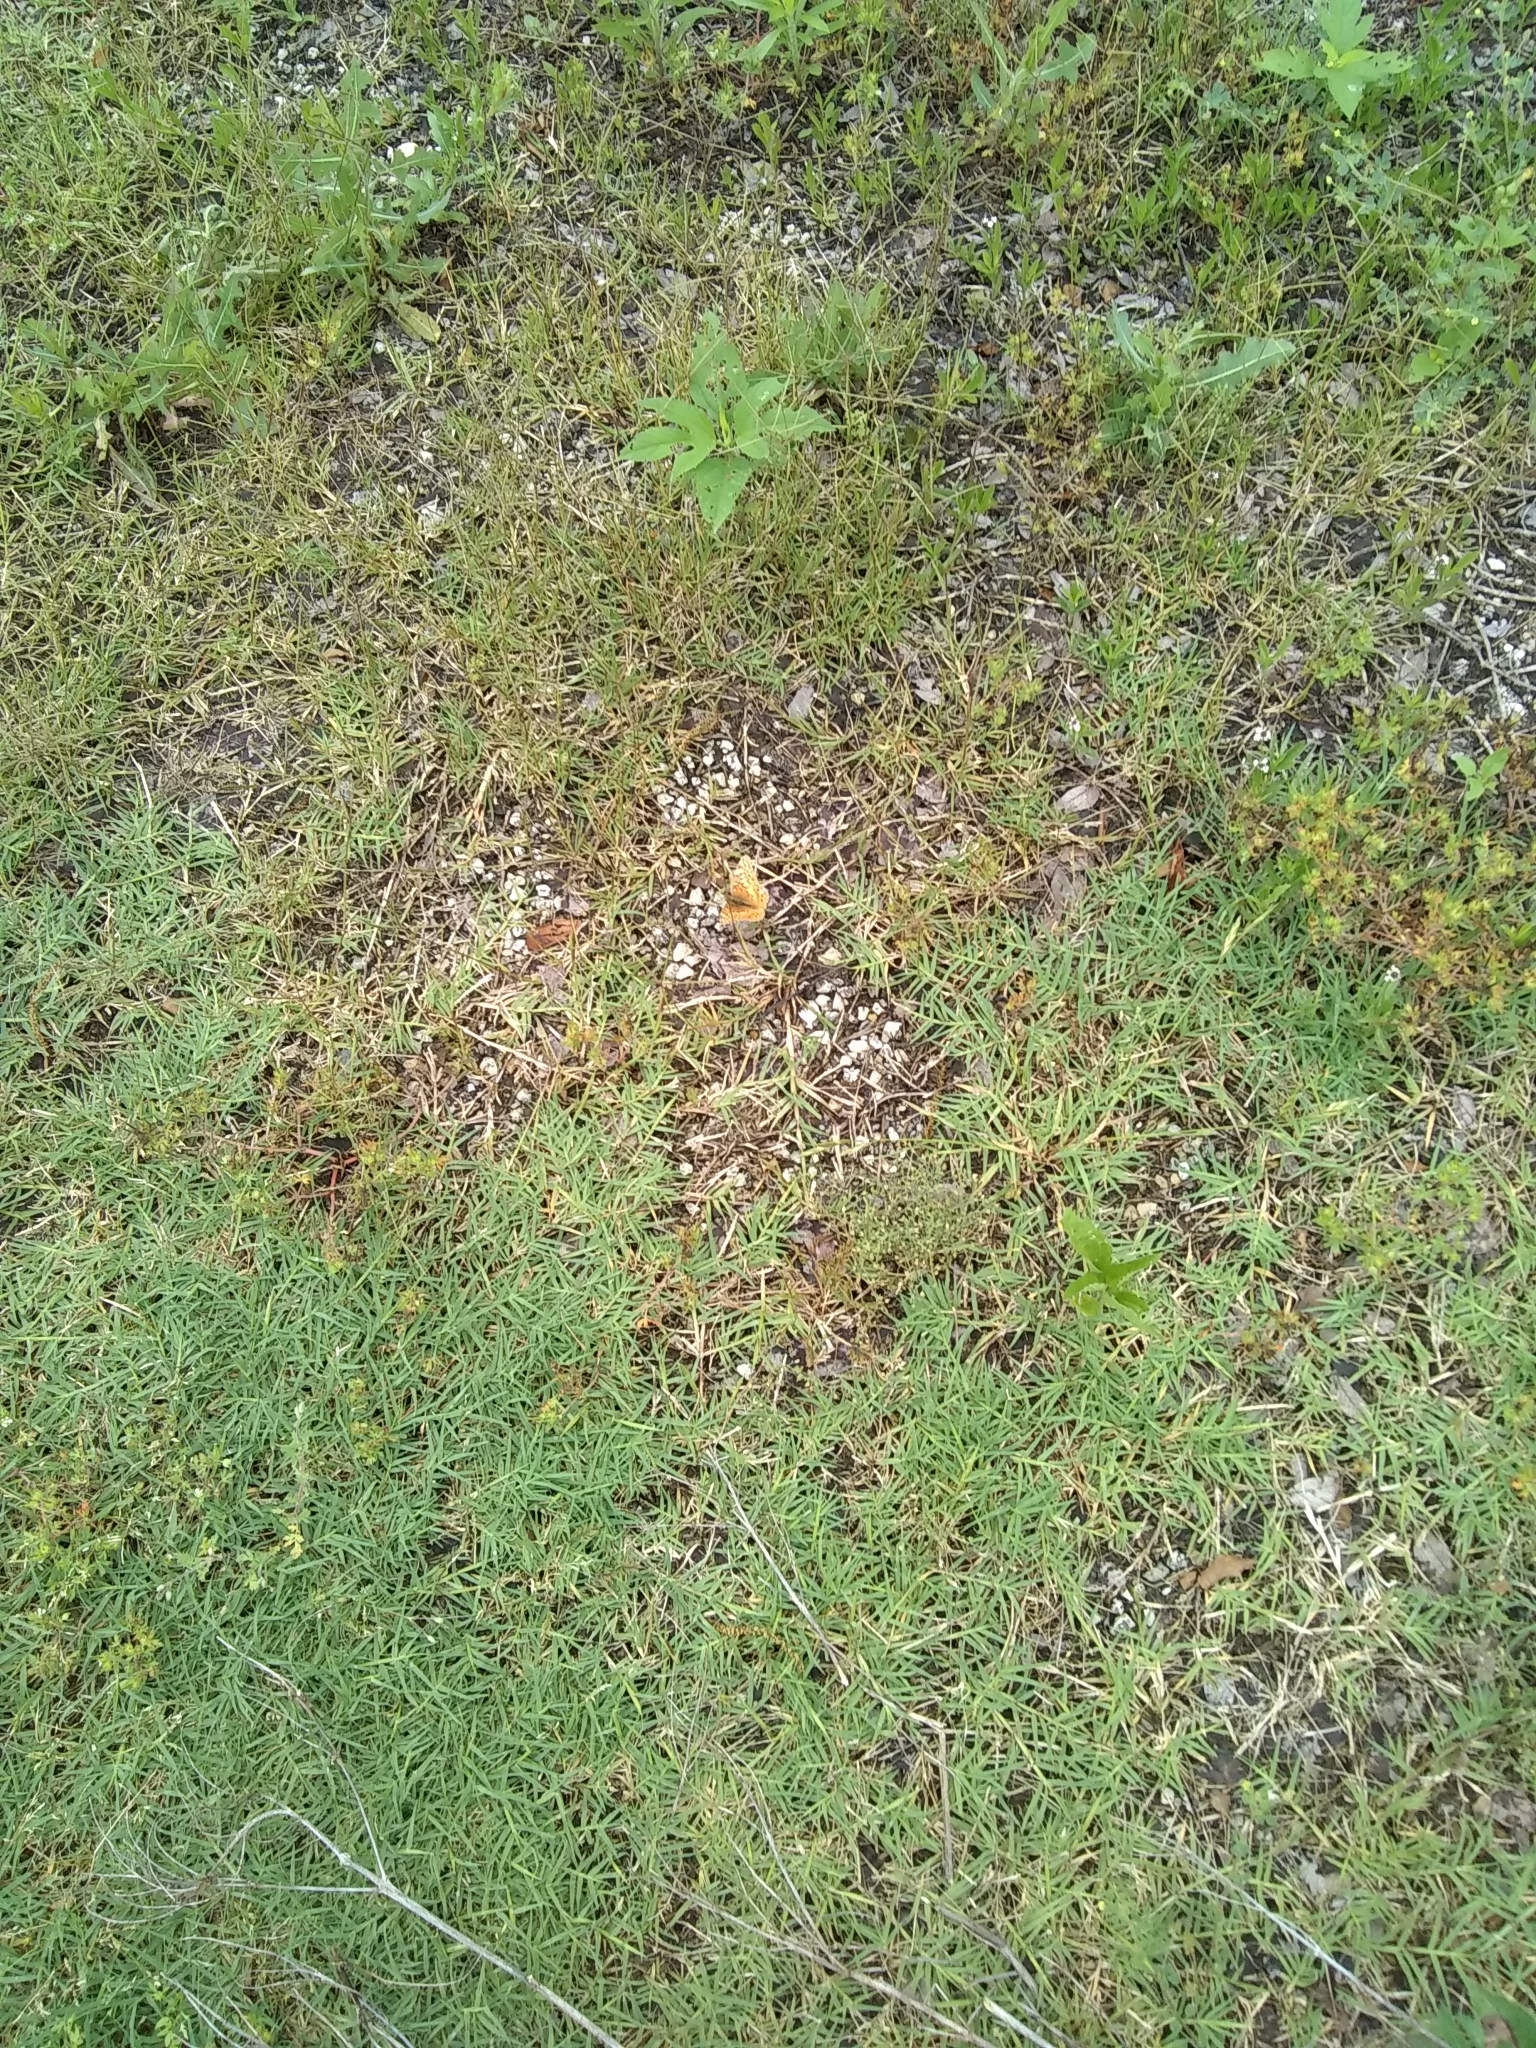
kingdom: Animalia
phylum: Arthropoda
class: Insecta
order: Lepidoptera
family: Nymphalidae
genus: Euptoieta
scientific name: Euptoieta claudia
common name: Variegated fritillary
